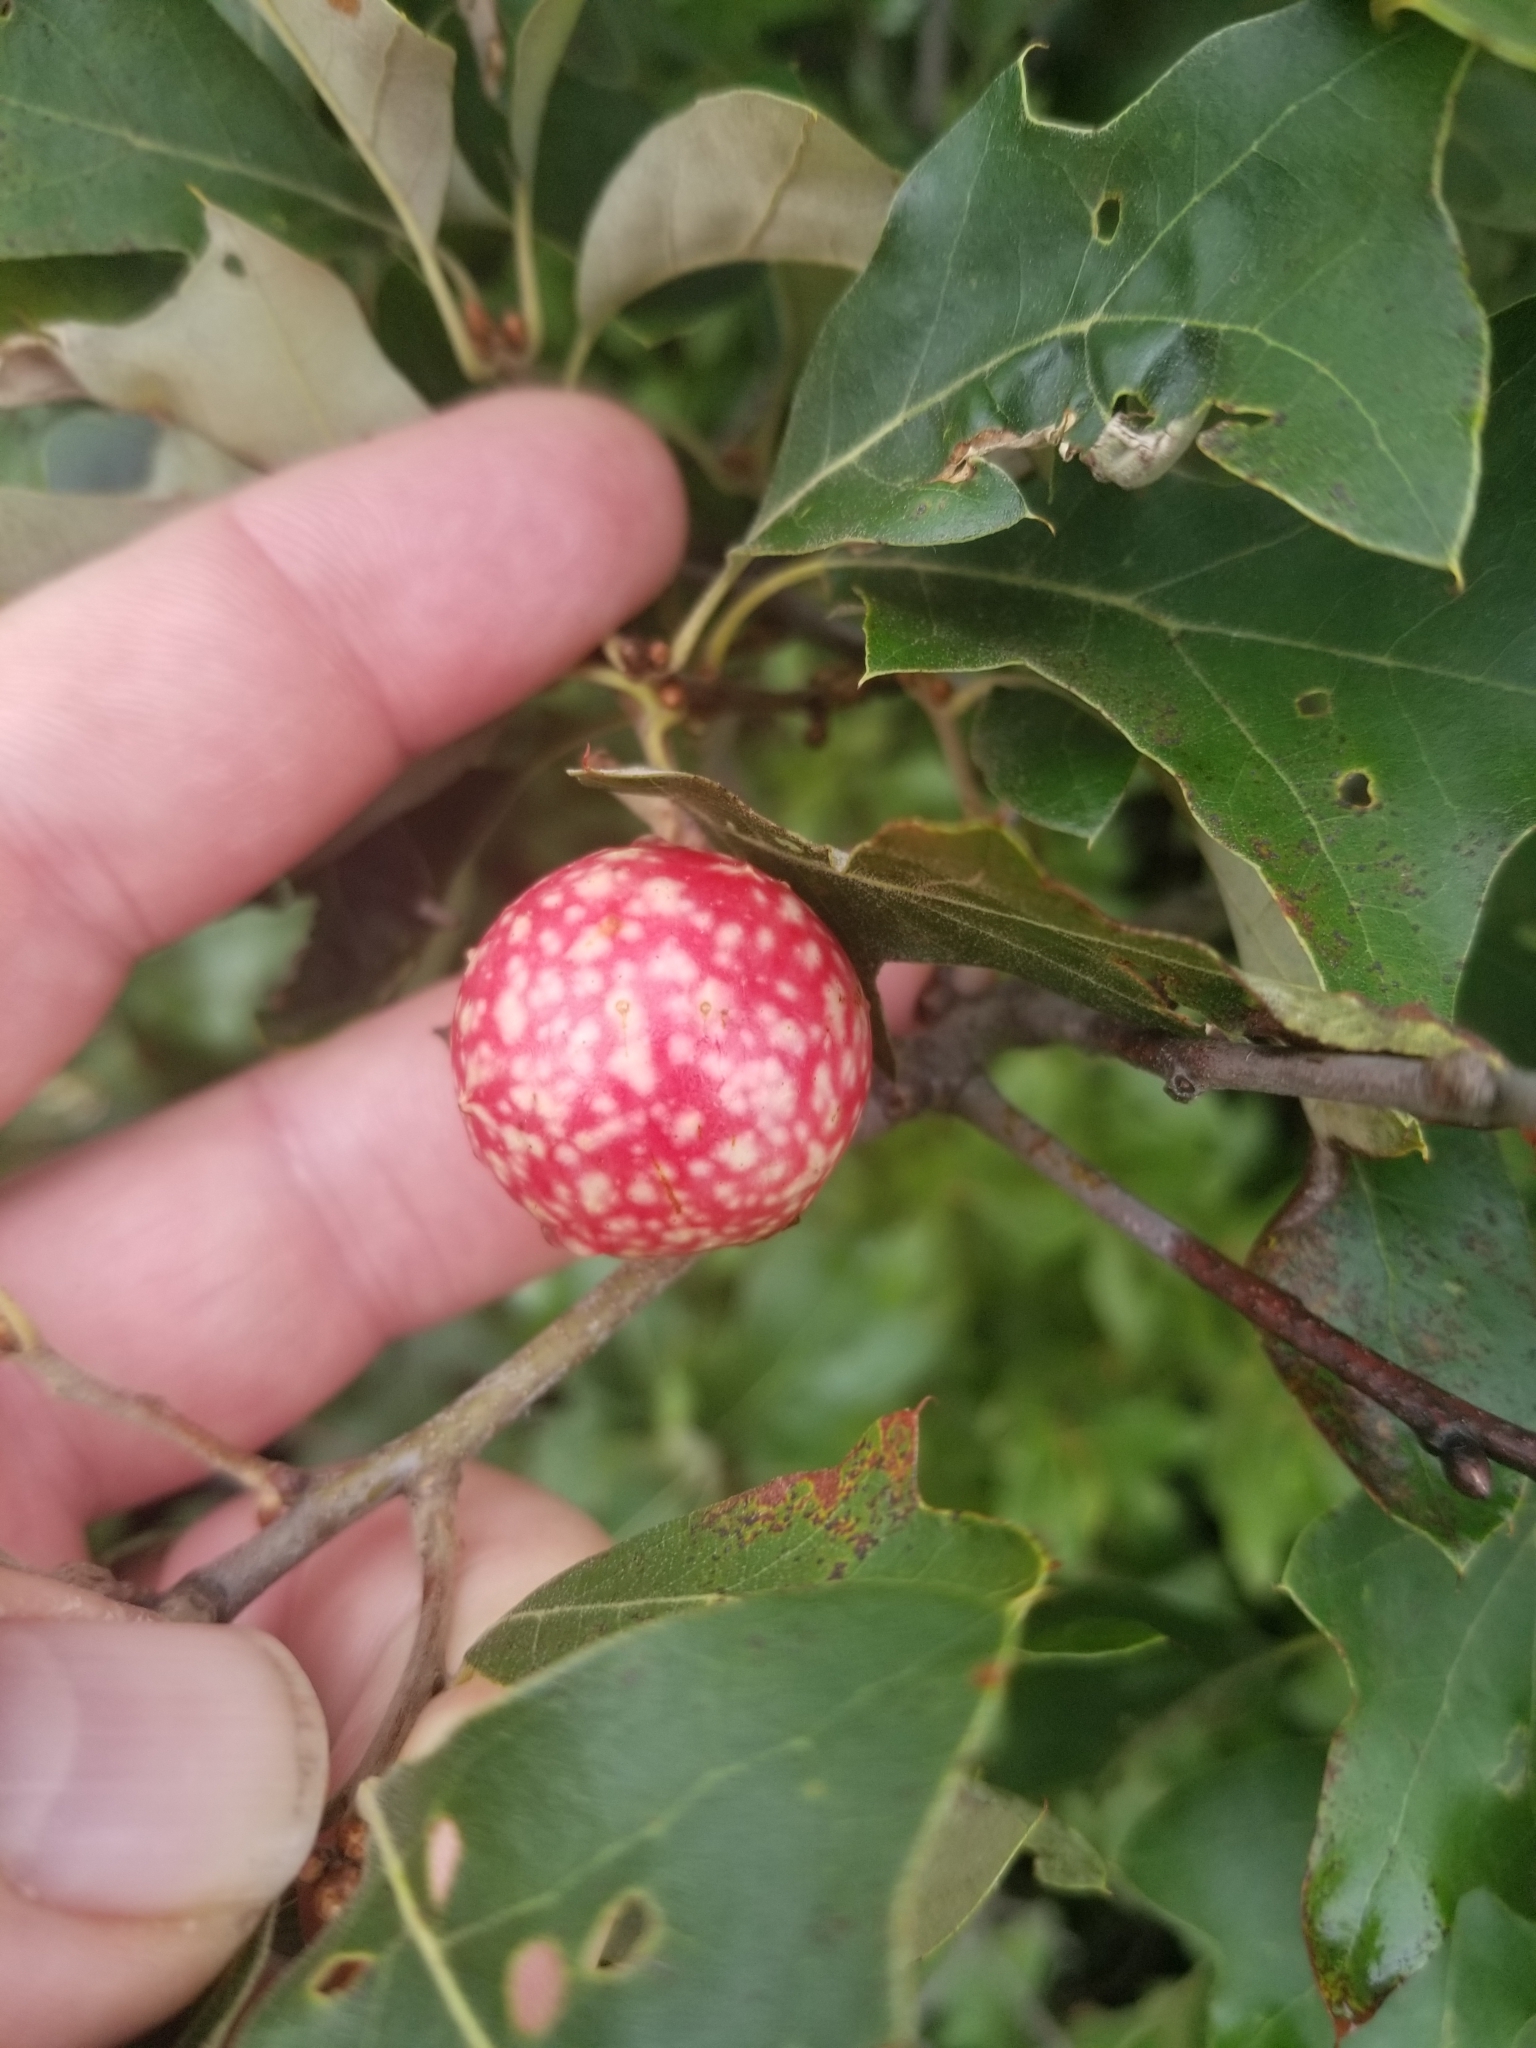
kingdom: Animalia
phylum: Arthropoda
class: Insecta
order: Hymenoptera
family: Cynipidae
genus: Amphibolips
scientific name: Amphibolips
